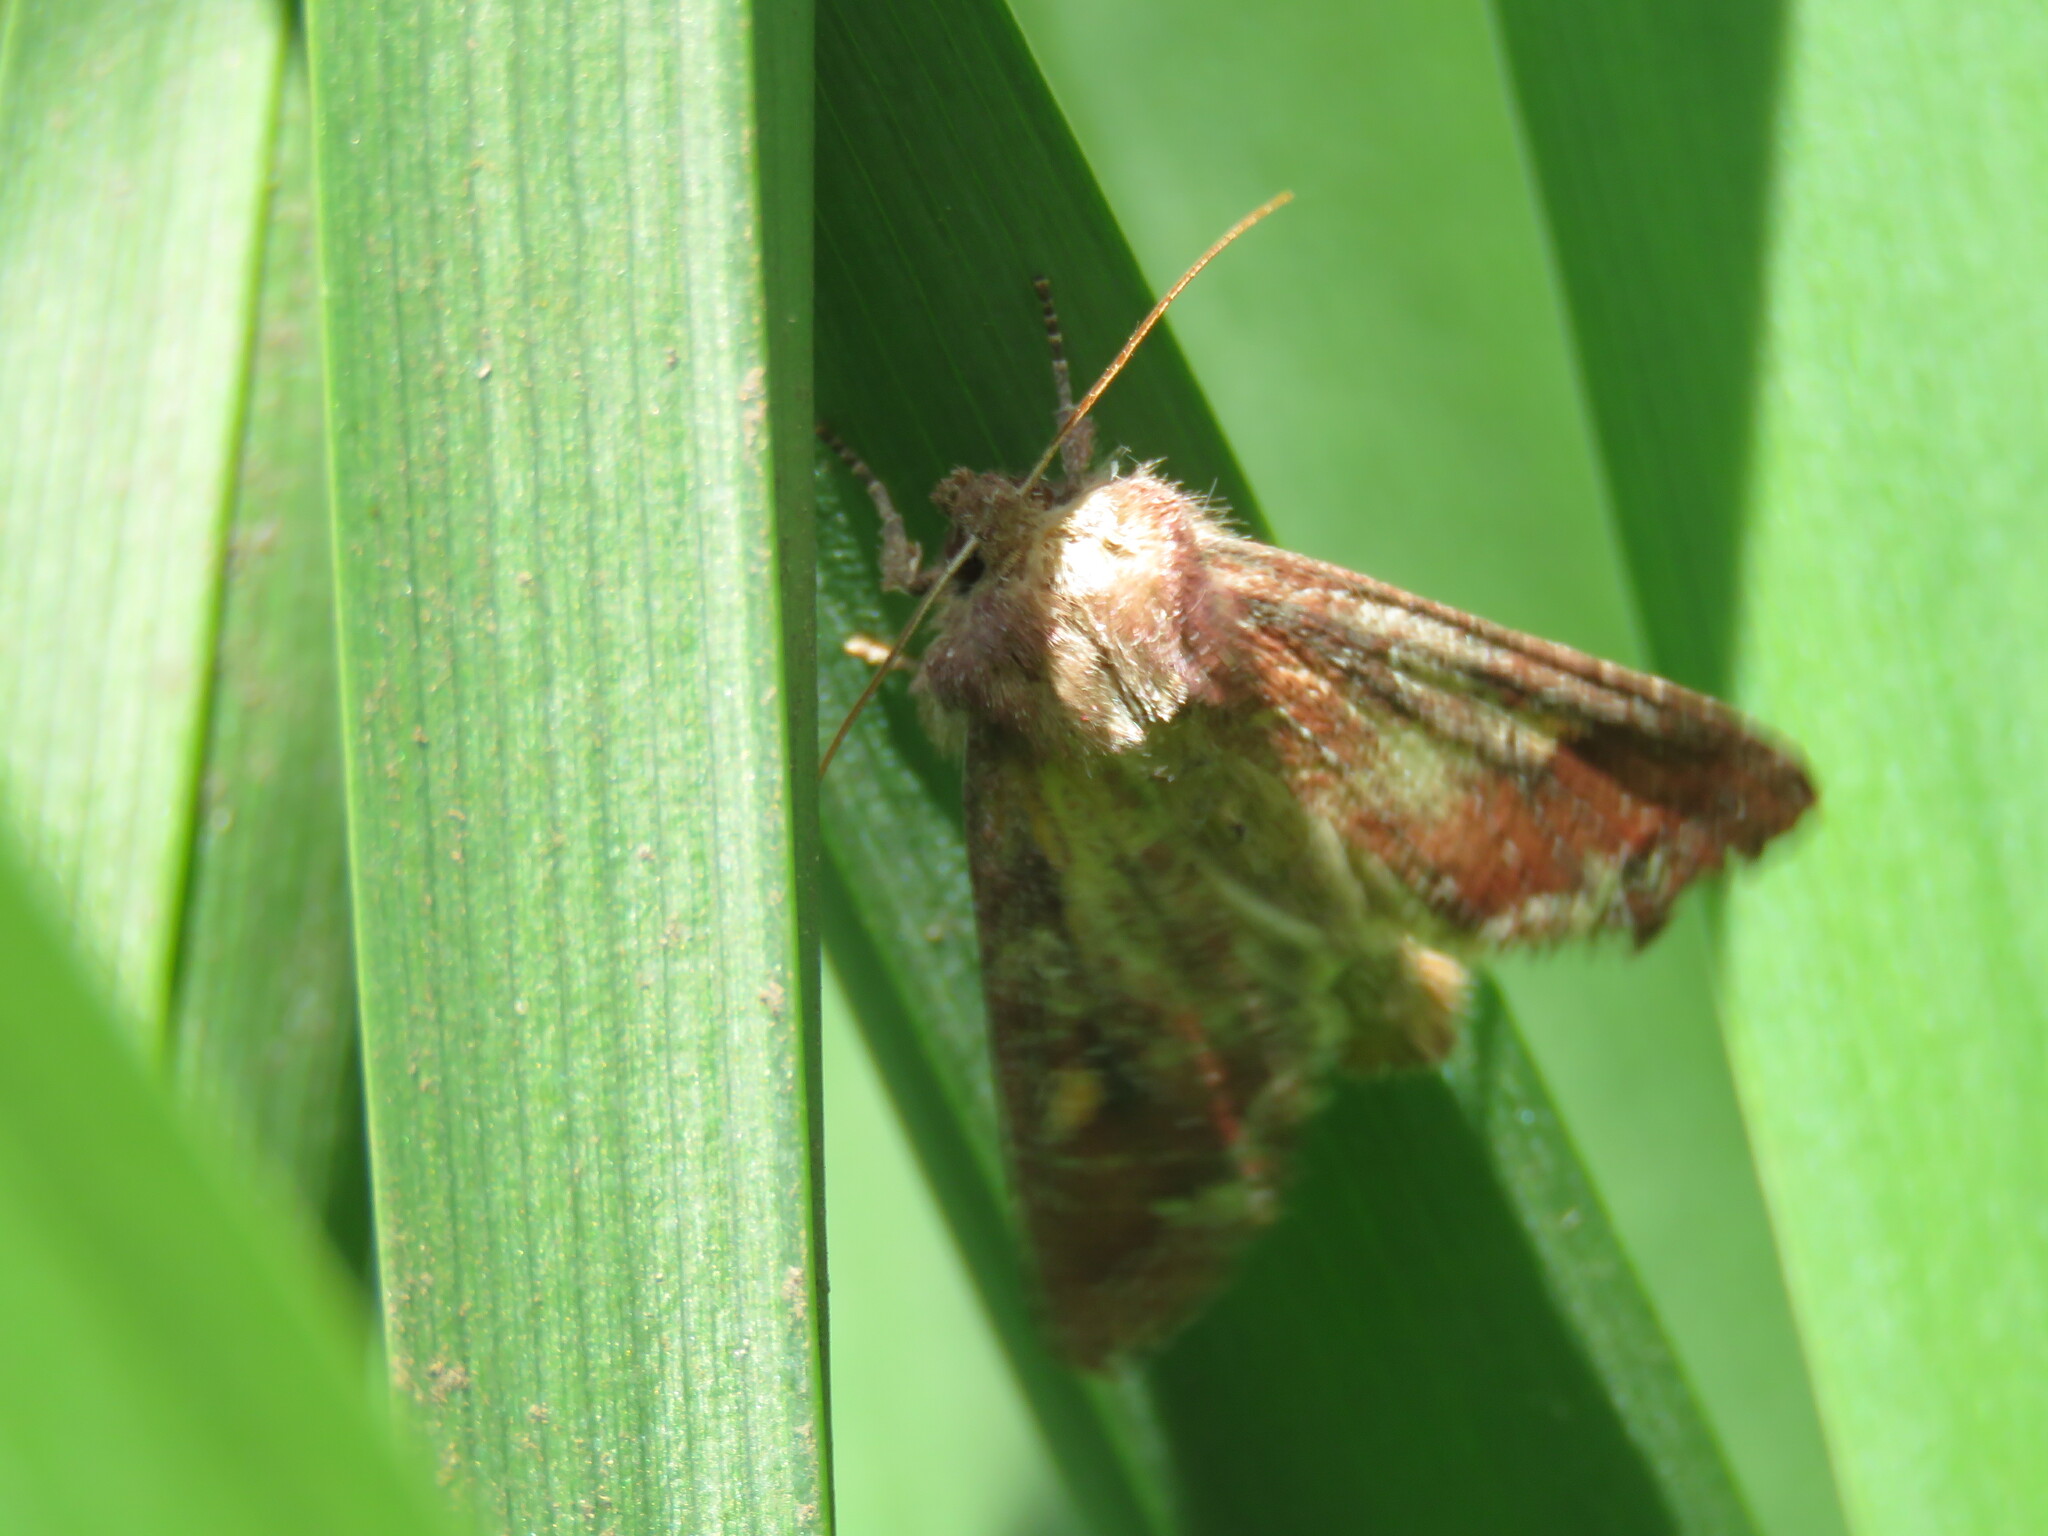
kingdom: Animalia
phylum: Arthropoda
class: Insecta
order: Lepidoptera
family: Noctuidae
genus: Lacanobia
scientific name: Lacanobia oleracea
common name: Bright-line brown-eye
